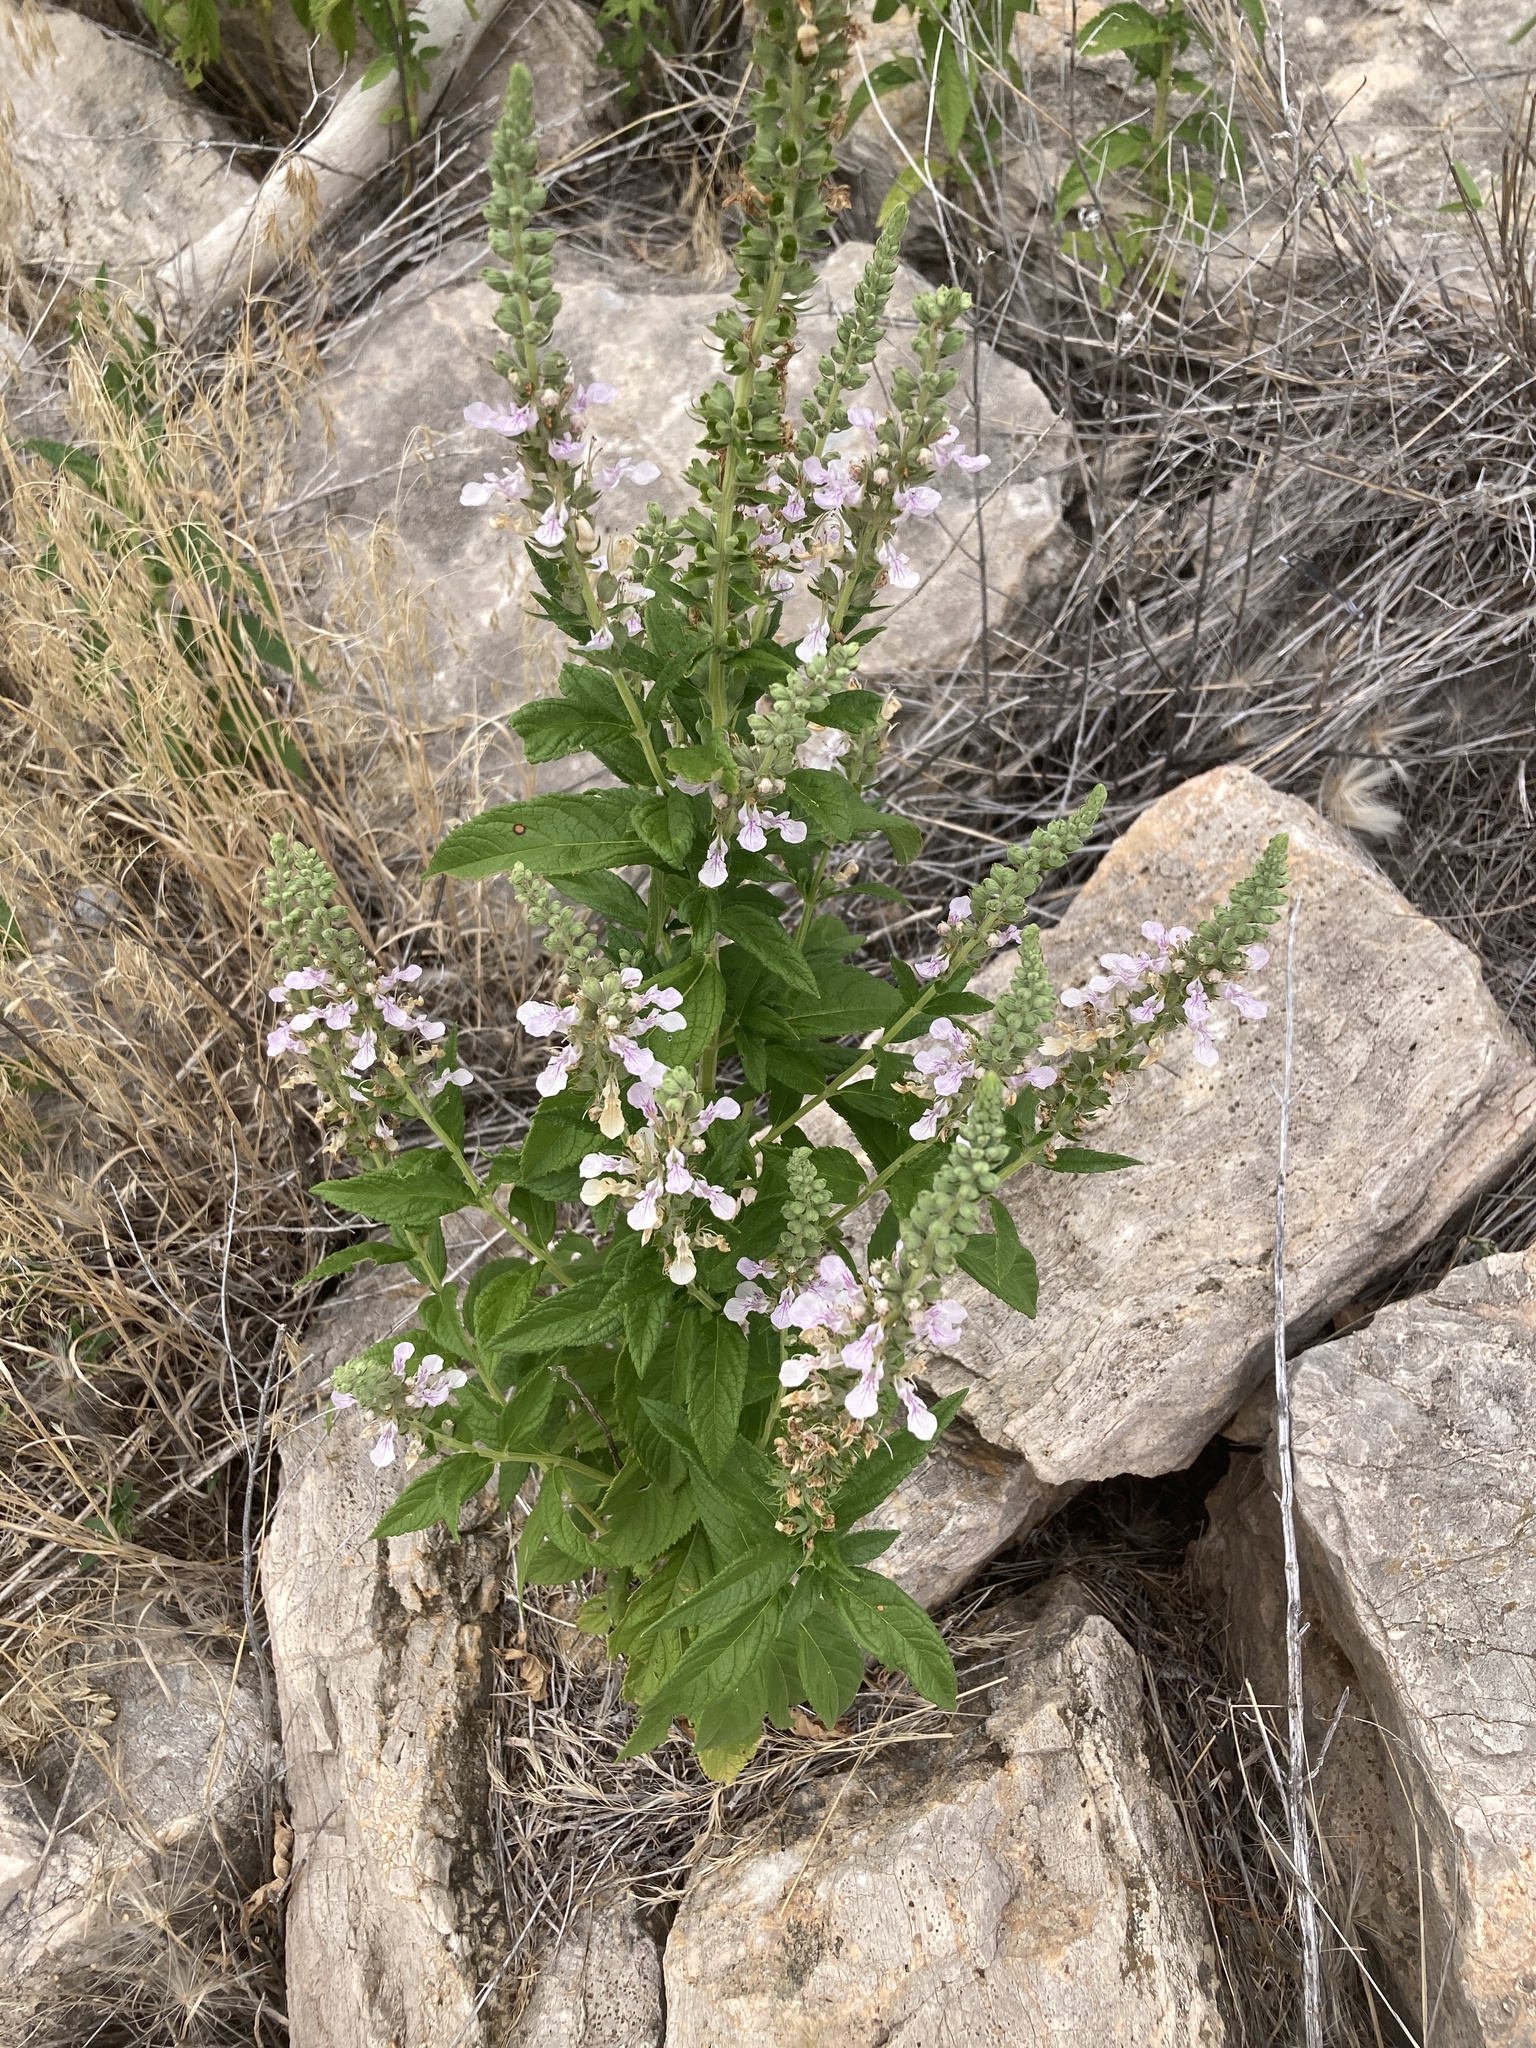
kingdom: Plantae
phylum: Tracheophyta
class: Magnoliopsida
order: Lamiales
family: Lamiaceae
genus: Teucrium
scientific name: Teucrium canadense
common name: American germander
